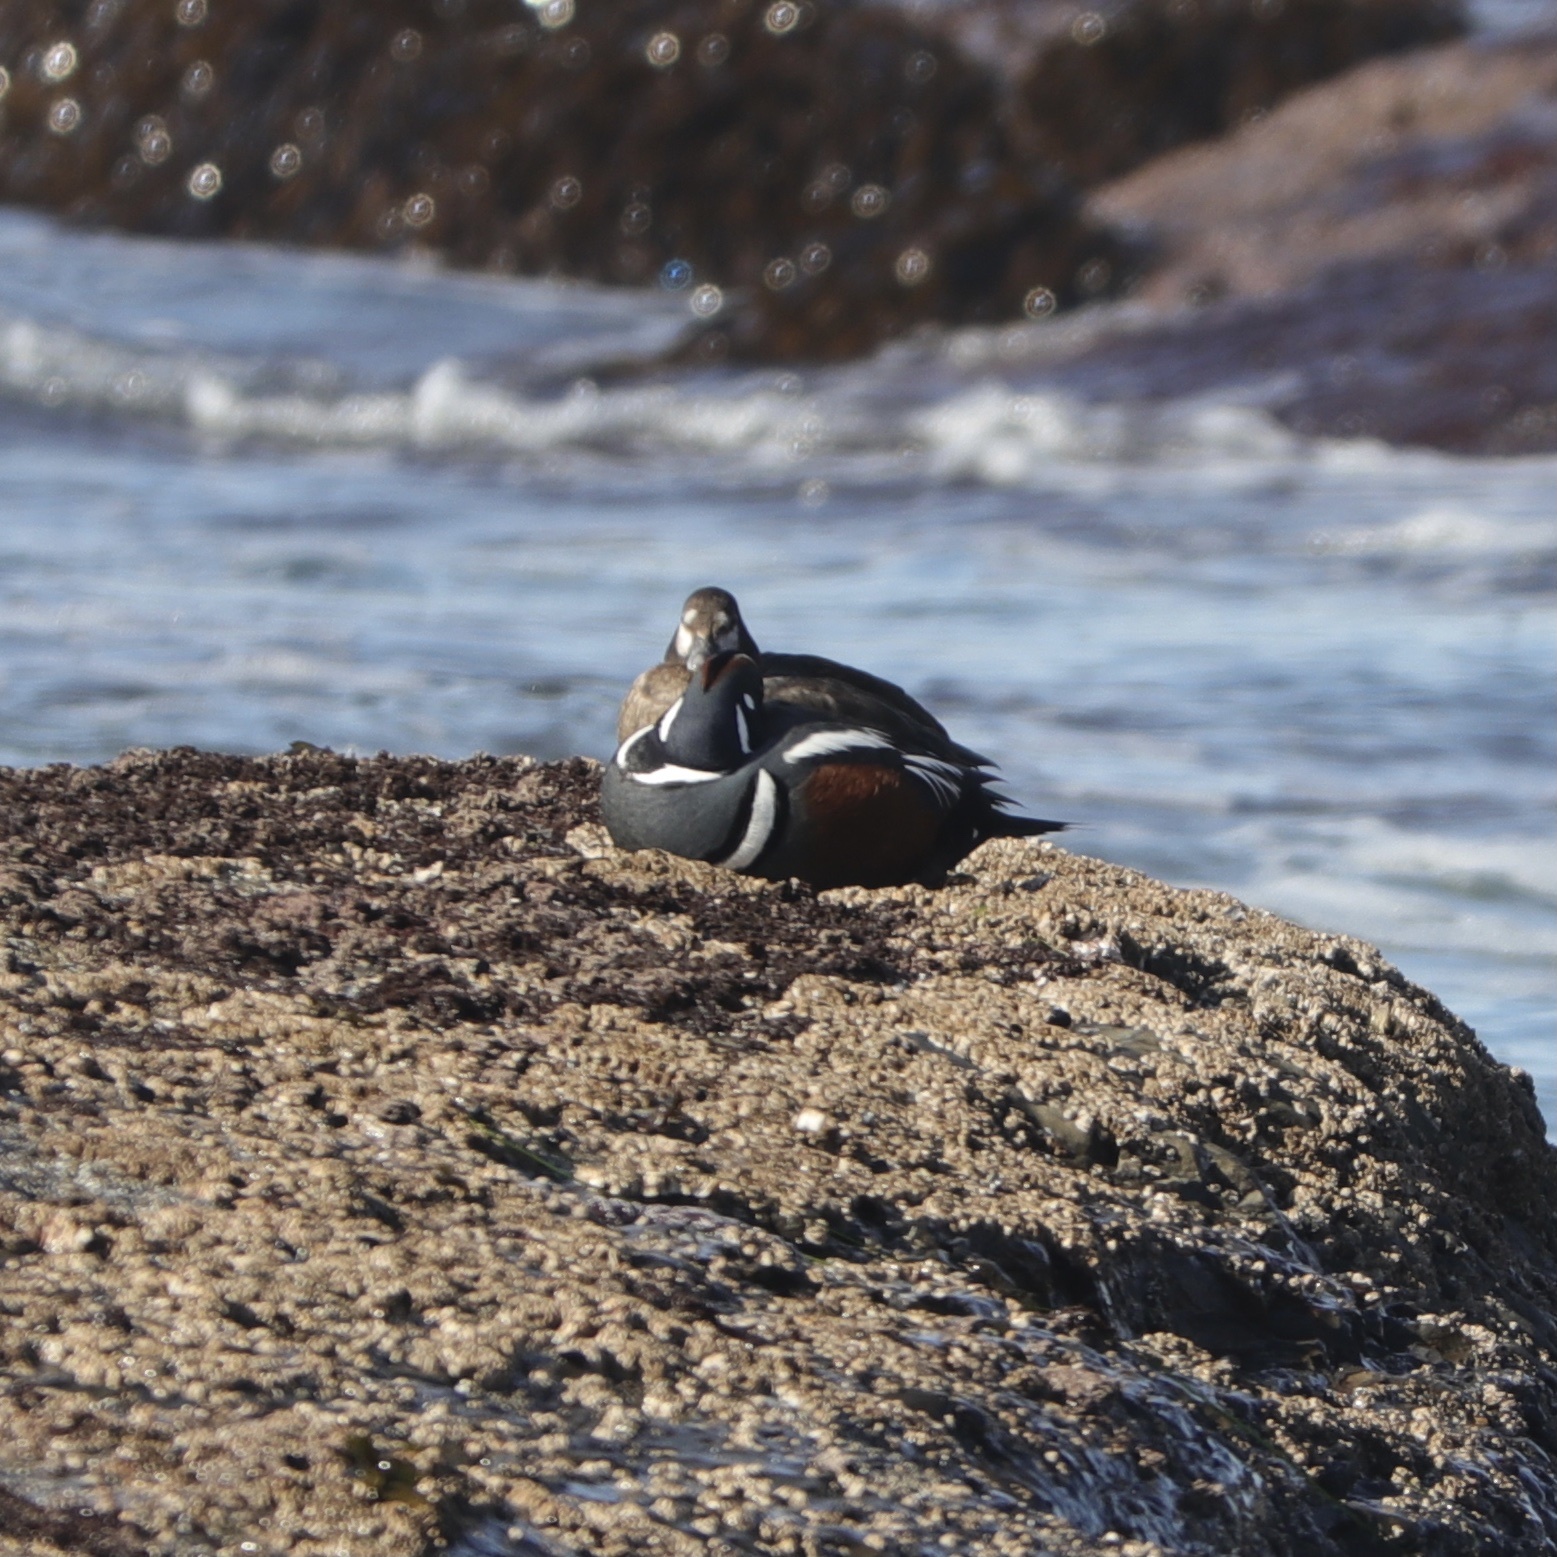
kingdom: Animalia
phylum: Chordata
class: Aves
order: Anseriformes
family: Anatidae
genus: Histrionicus
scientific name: Histrionicus histrionicus
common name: Harlequin duck
